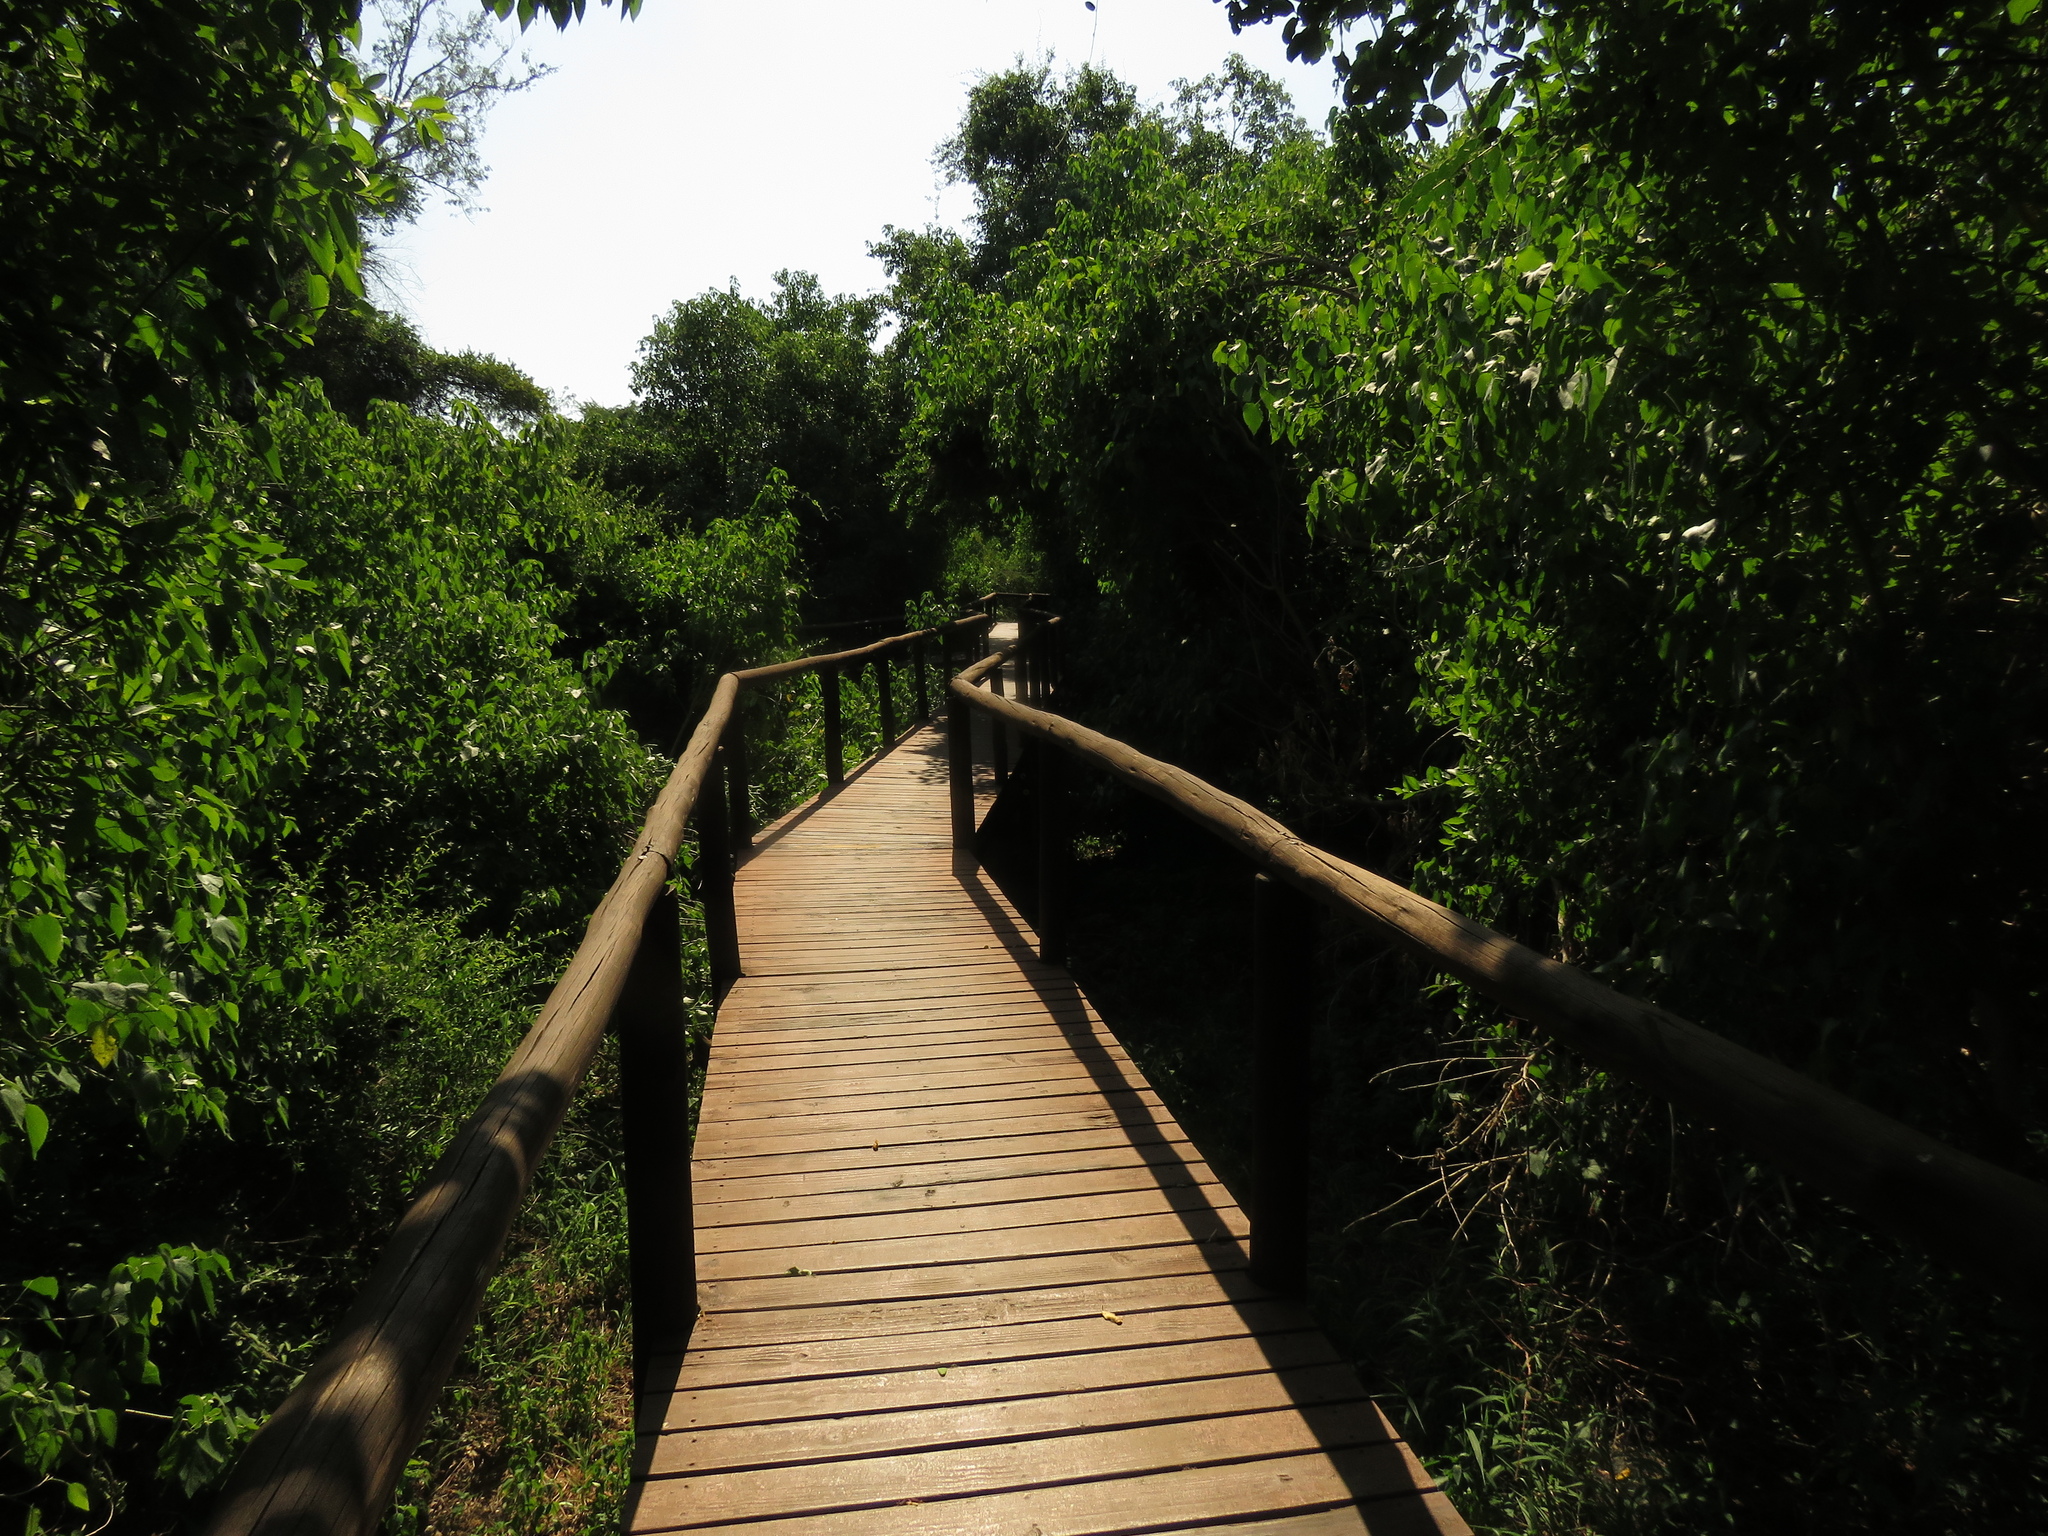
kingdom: Plantae
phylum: Tracheophyta
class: Magnoliopsida
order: Malpighiales
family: Euphorbiaceae
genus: Croton
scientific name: Croton megalobotrys
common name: Large fever berry
